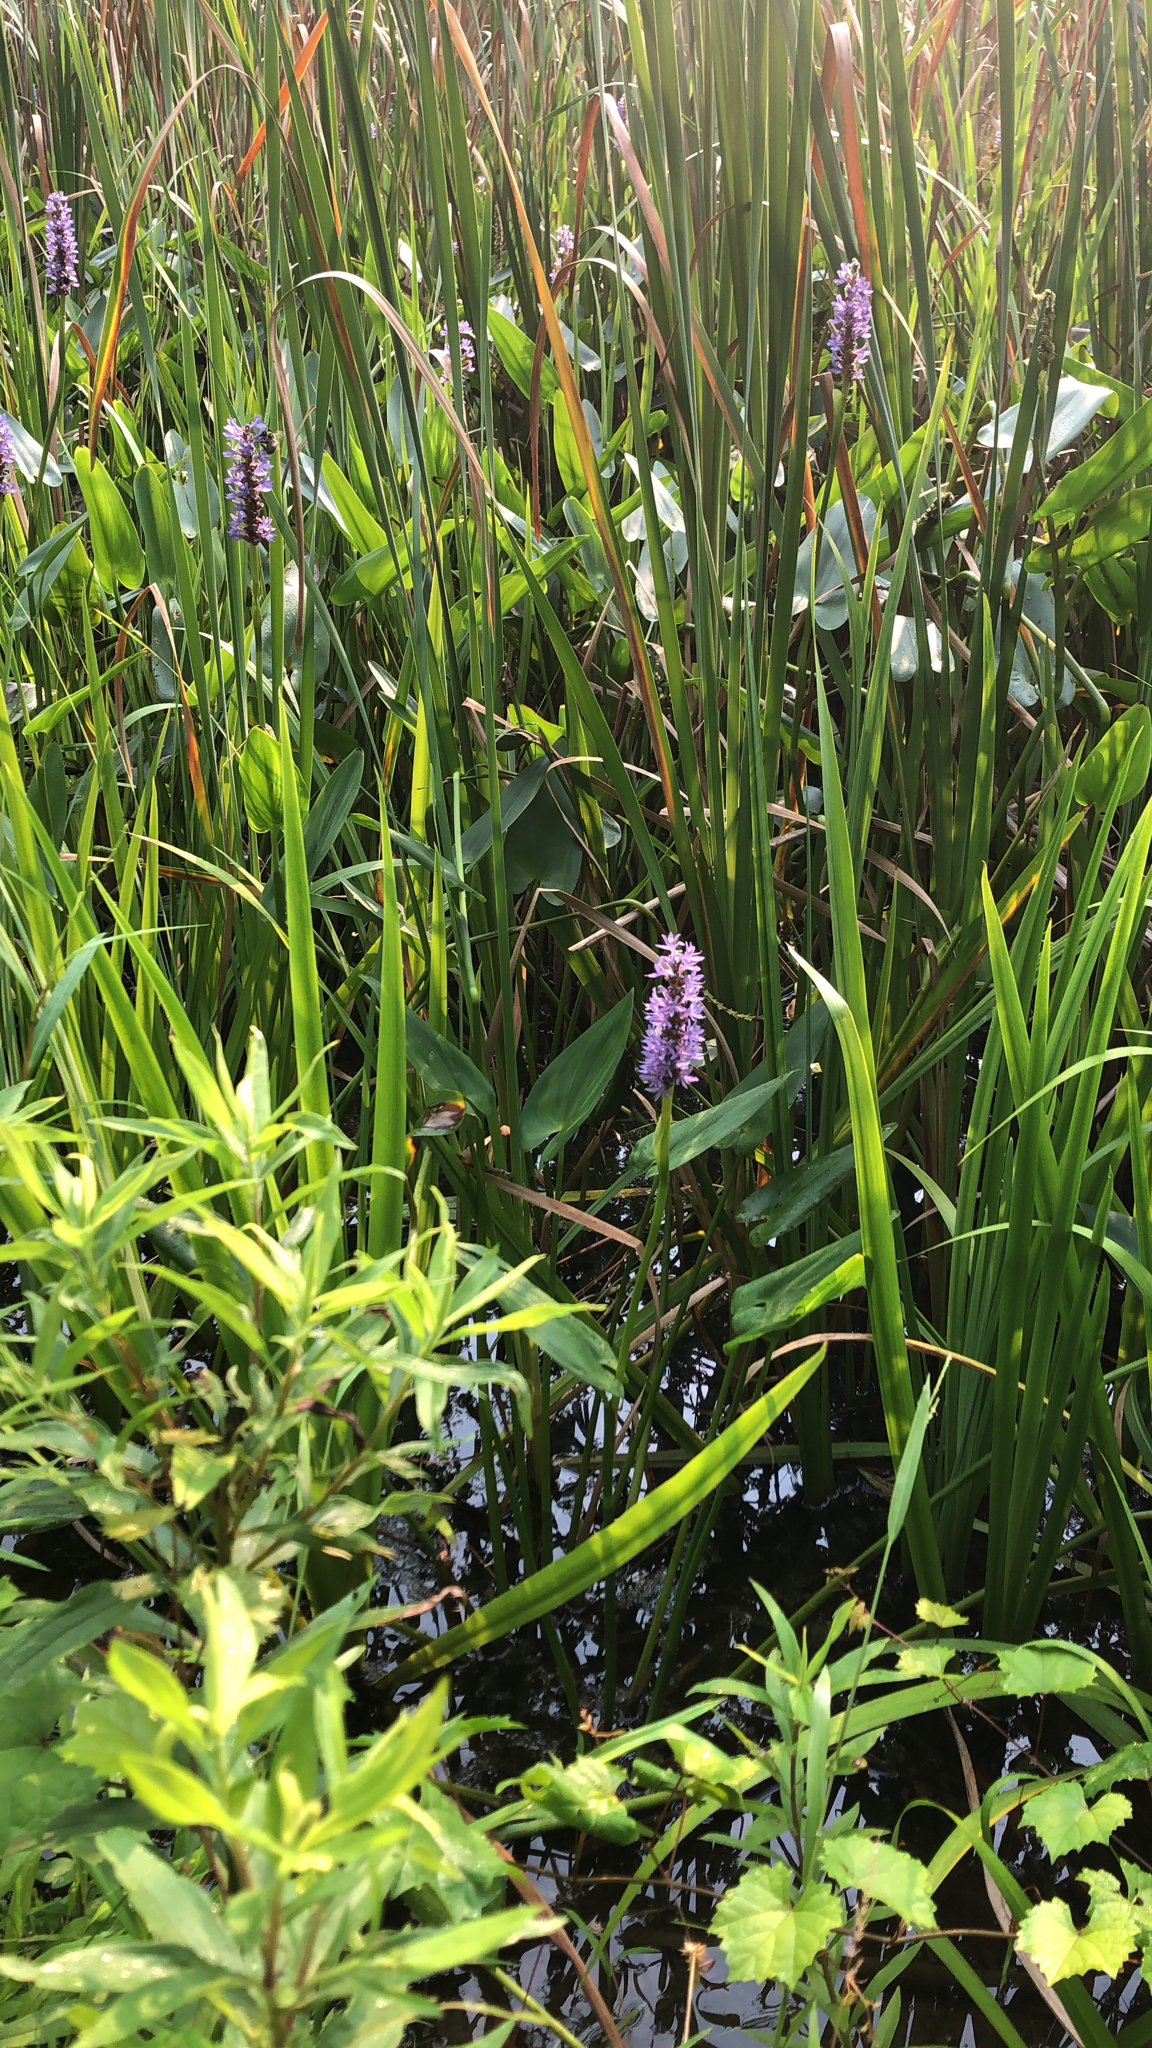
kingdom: Plantae
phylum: Tracheophyta
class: Liliopsida
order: Commelinales
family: Pontederiaceae
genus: Pontederia
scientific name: Pontederia cordata
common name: Pickerelweed
